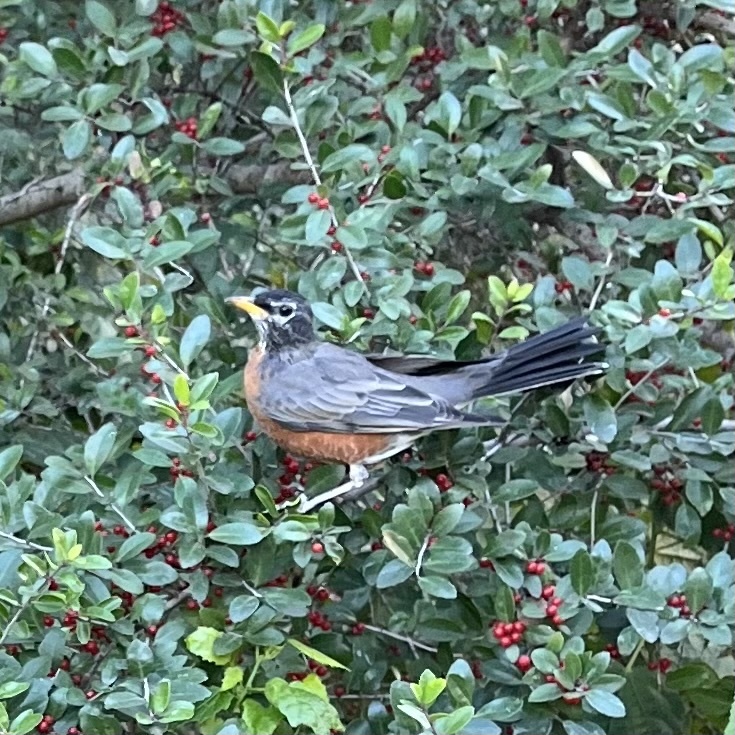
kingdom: Animalia
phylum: Chordata
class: Aves
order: Passeriformes
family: Turdidae
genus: Turdus
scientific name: Turdus migratorius
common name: American robin
